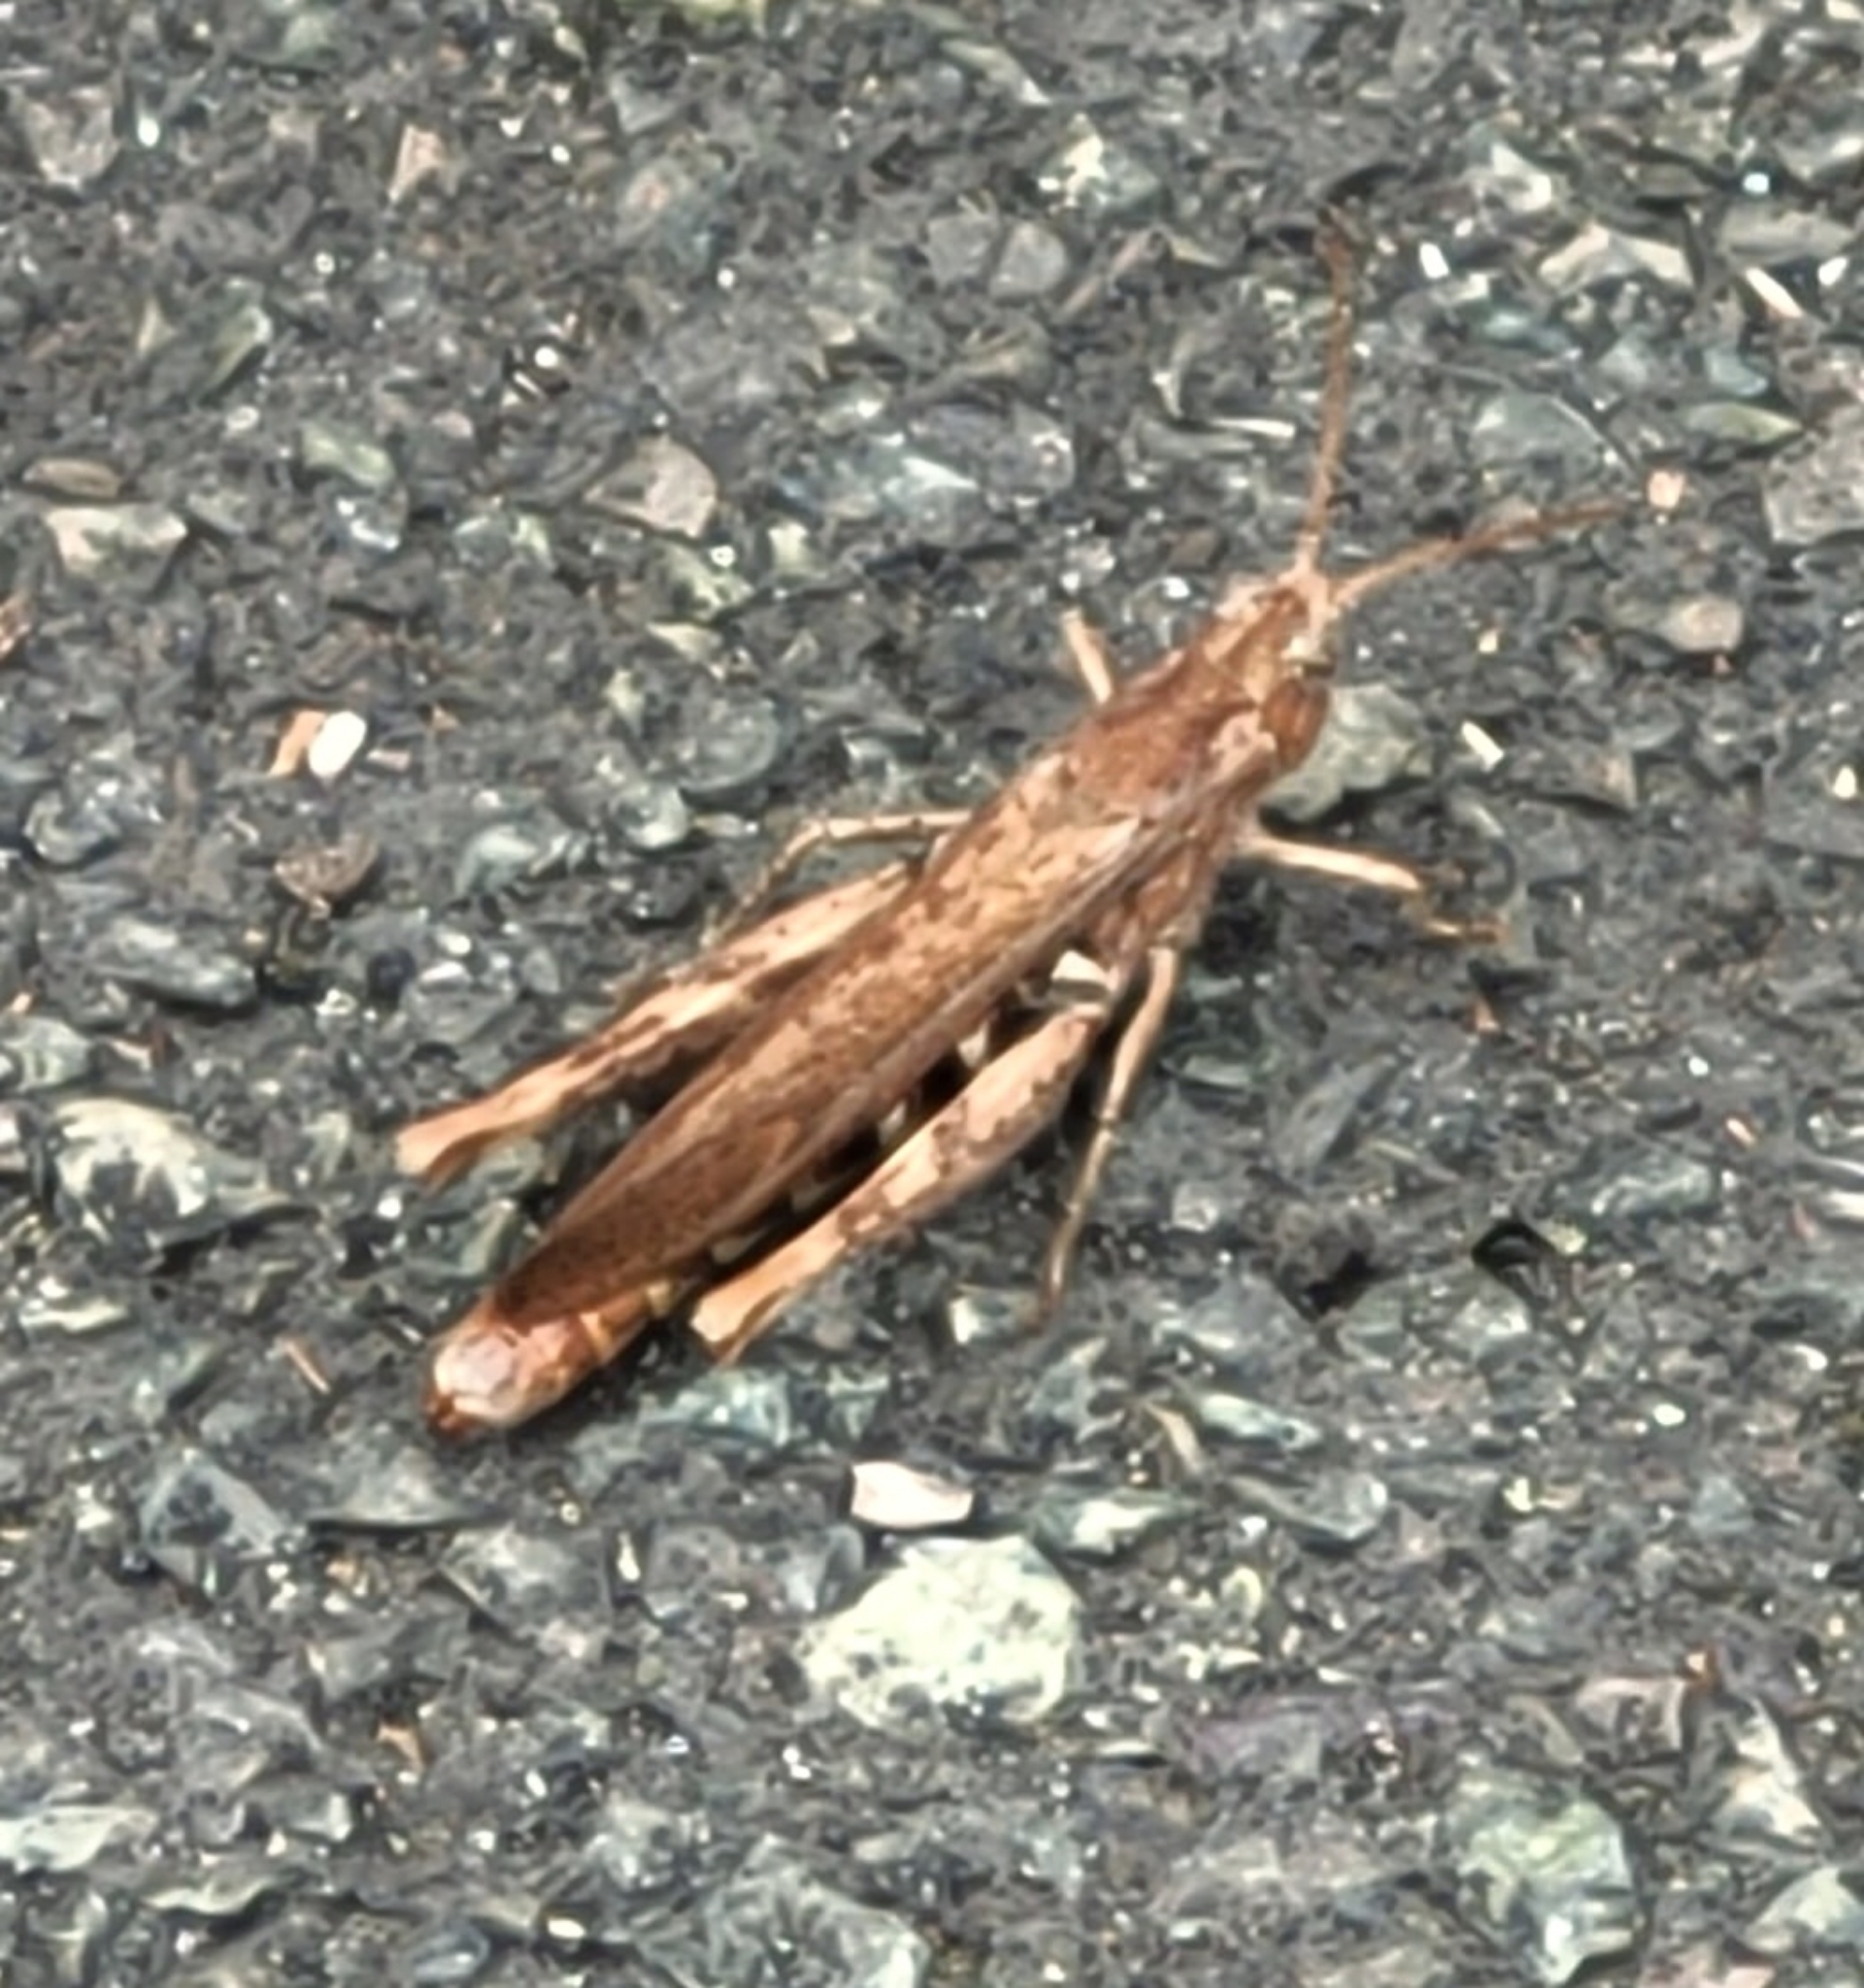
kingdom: Animalia
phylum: Arthropoda
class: Insecta
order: Orthoptera
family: Acrididae
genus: Chorthippus
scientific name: Chorthippus brunneus
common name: Field grasshopper
